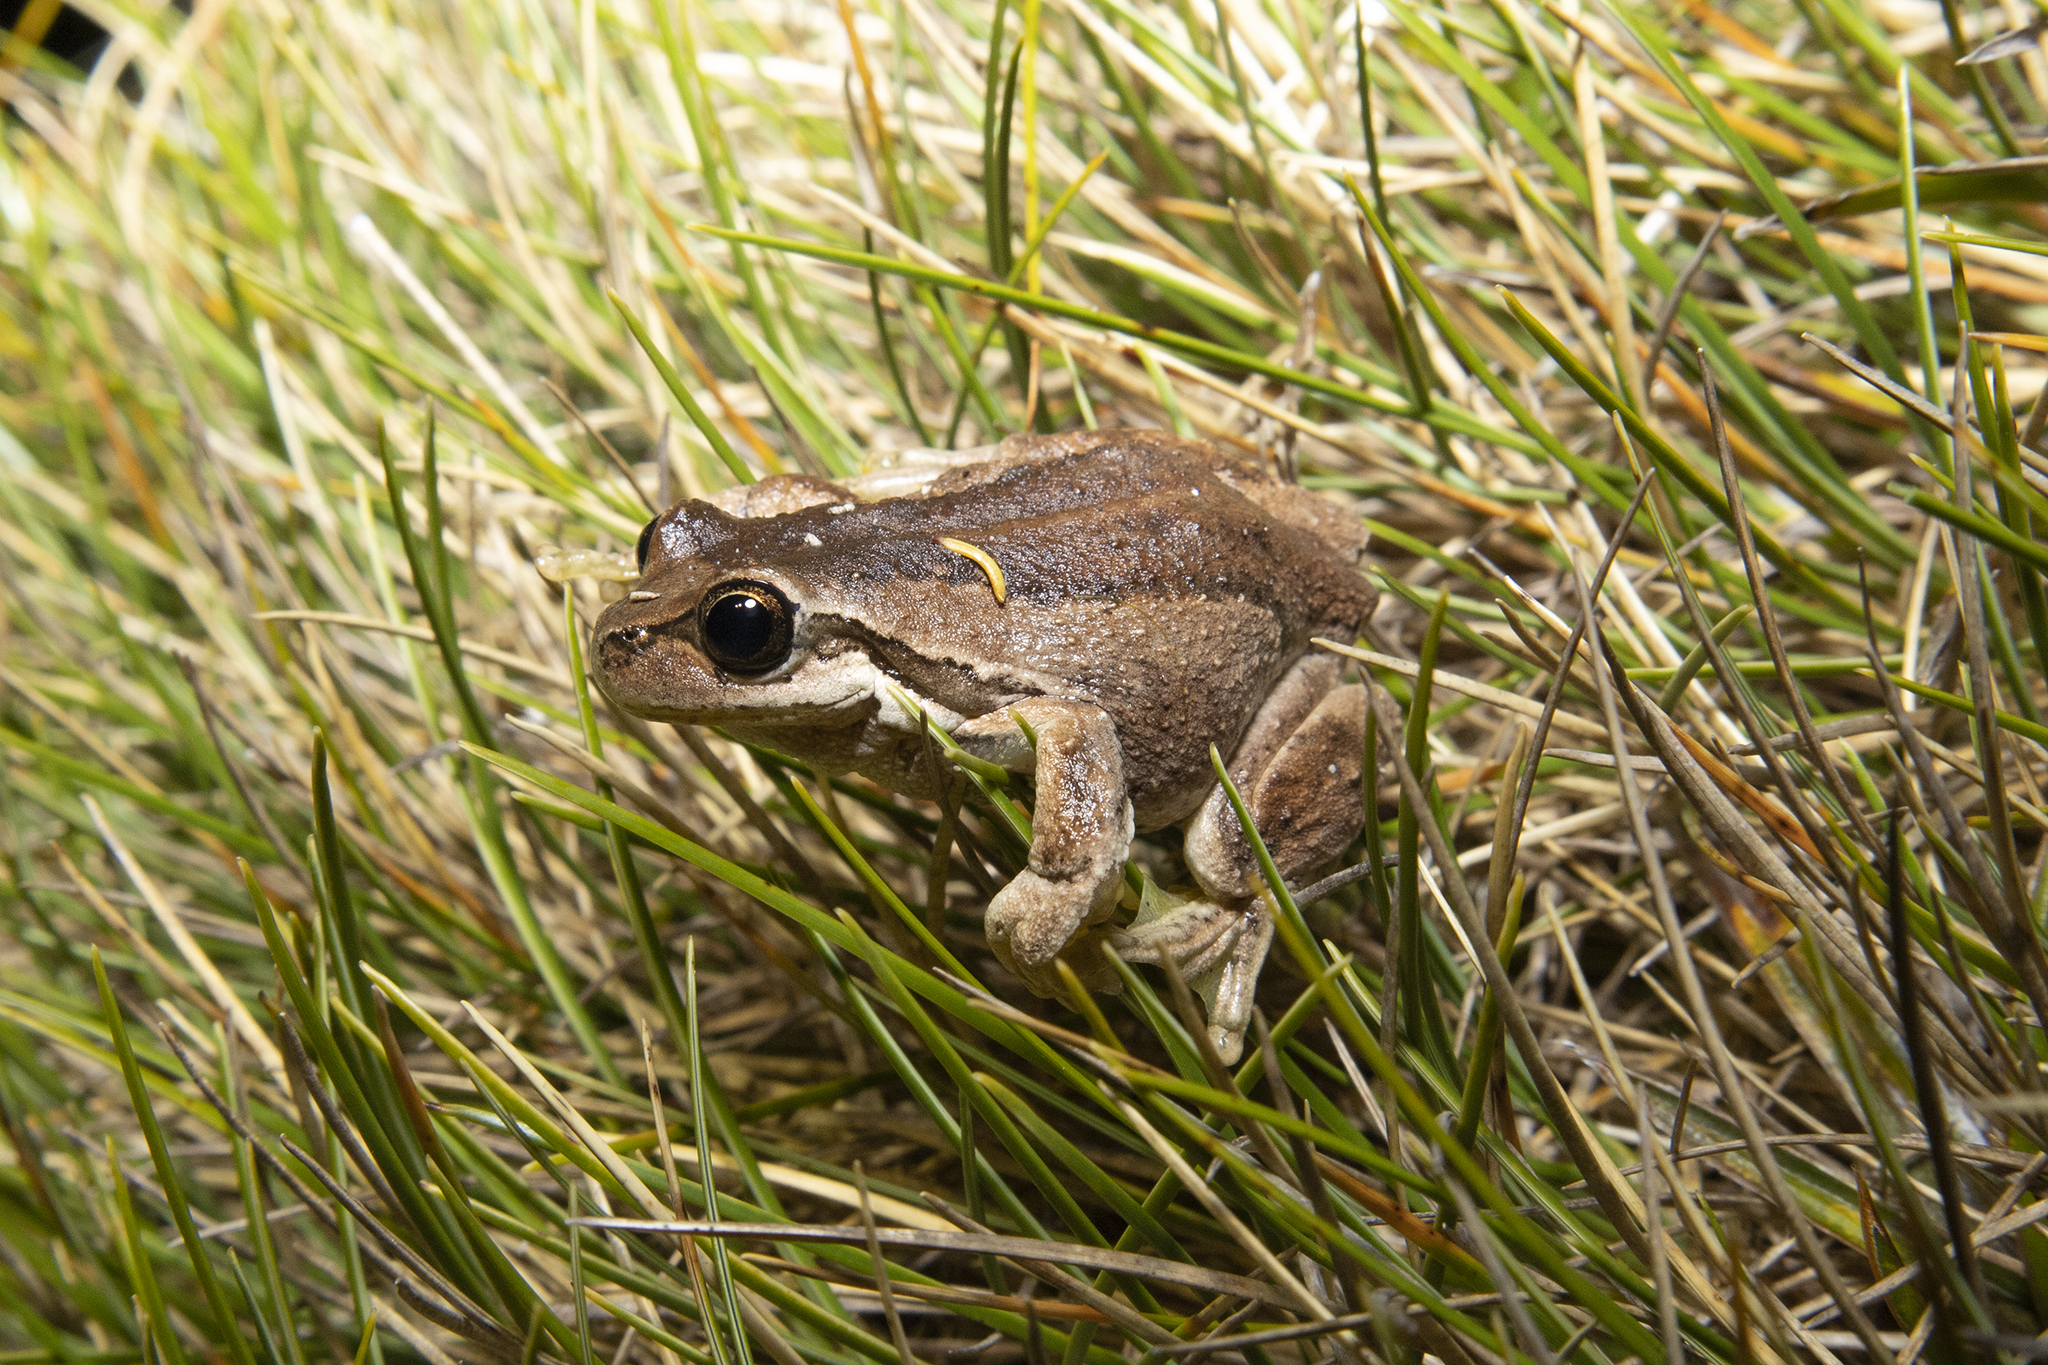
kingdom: Animalia
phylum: Chordata
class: Amphibia
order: Anura
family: Pelodryadidae
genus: Litoria
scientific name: Litoria ewingii
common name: Southern brown tree frog
